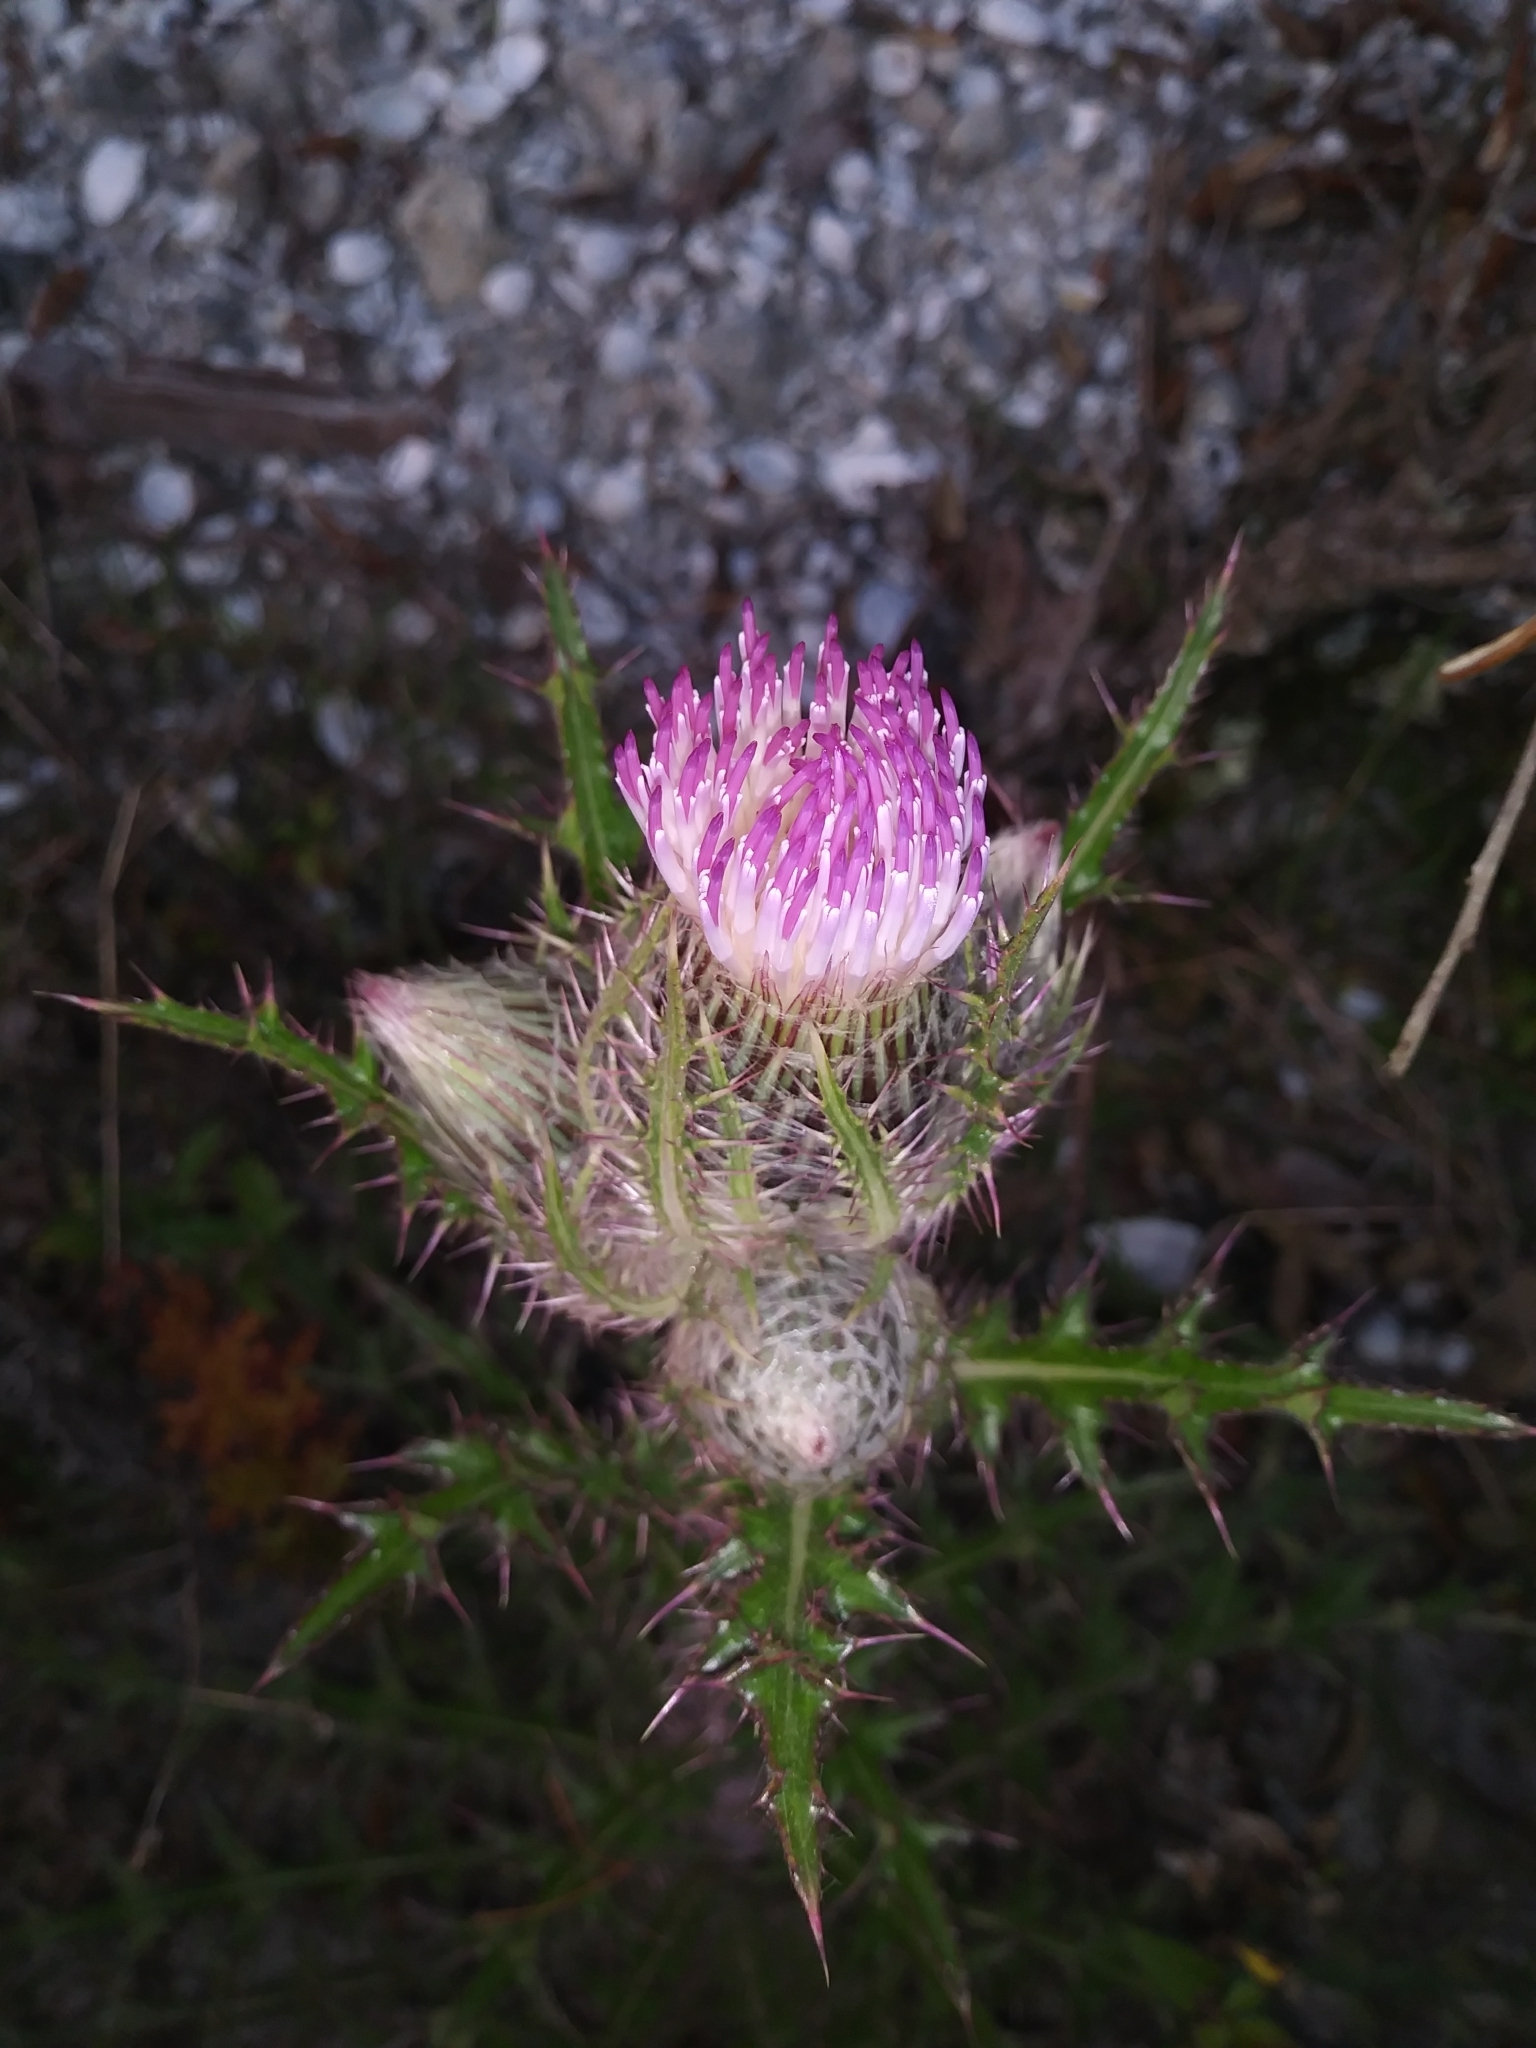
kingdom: Plantae
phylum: Tracheophyta
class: Magnoliopsida
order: Asterales
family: Asteraceae
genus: Cirsium
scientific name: Cirsium horridulum
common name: Bristly thistle
